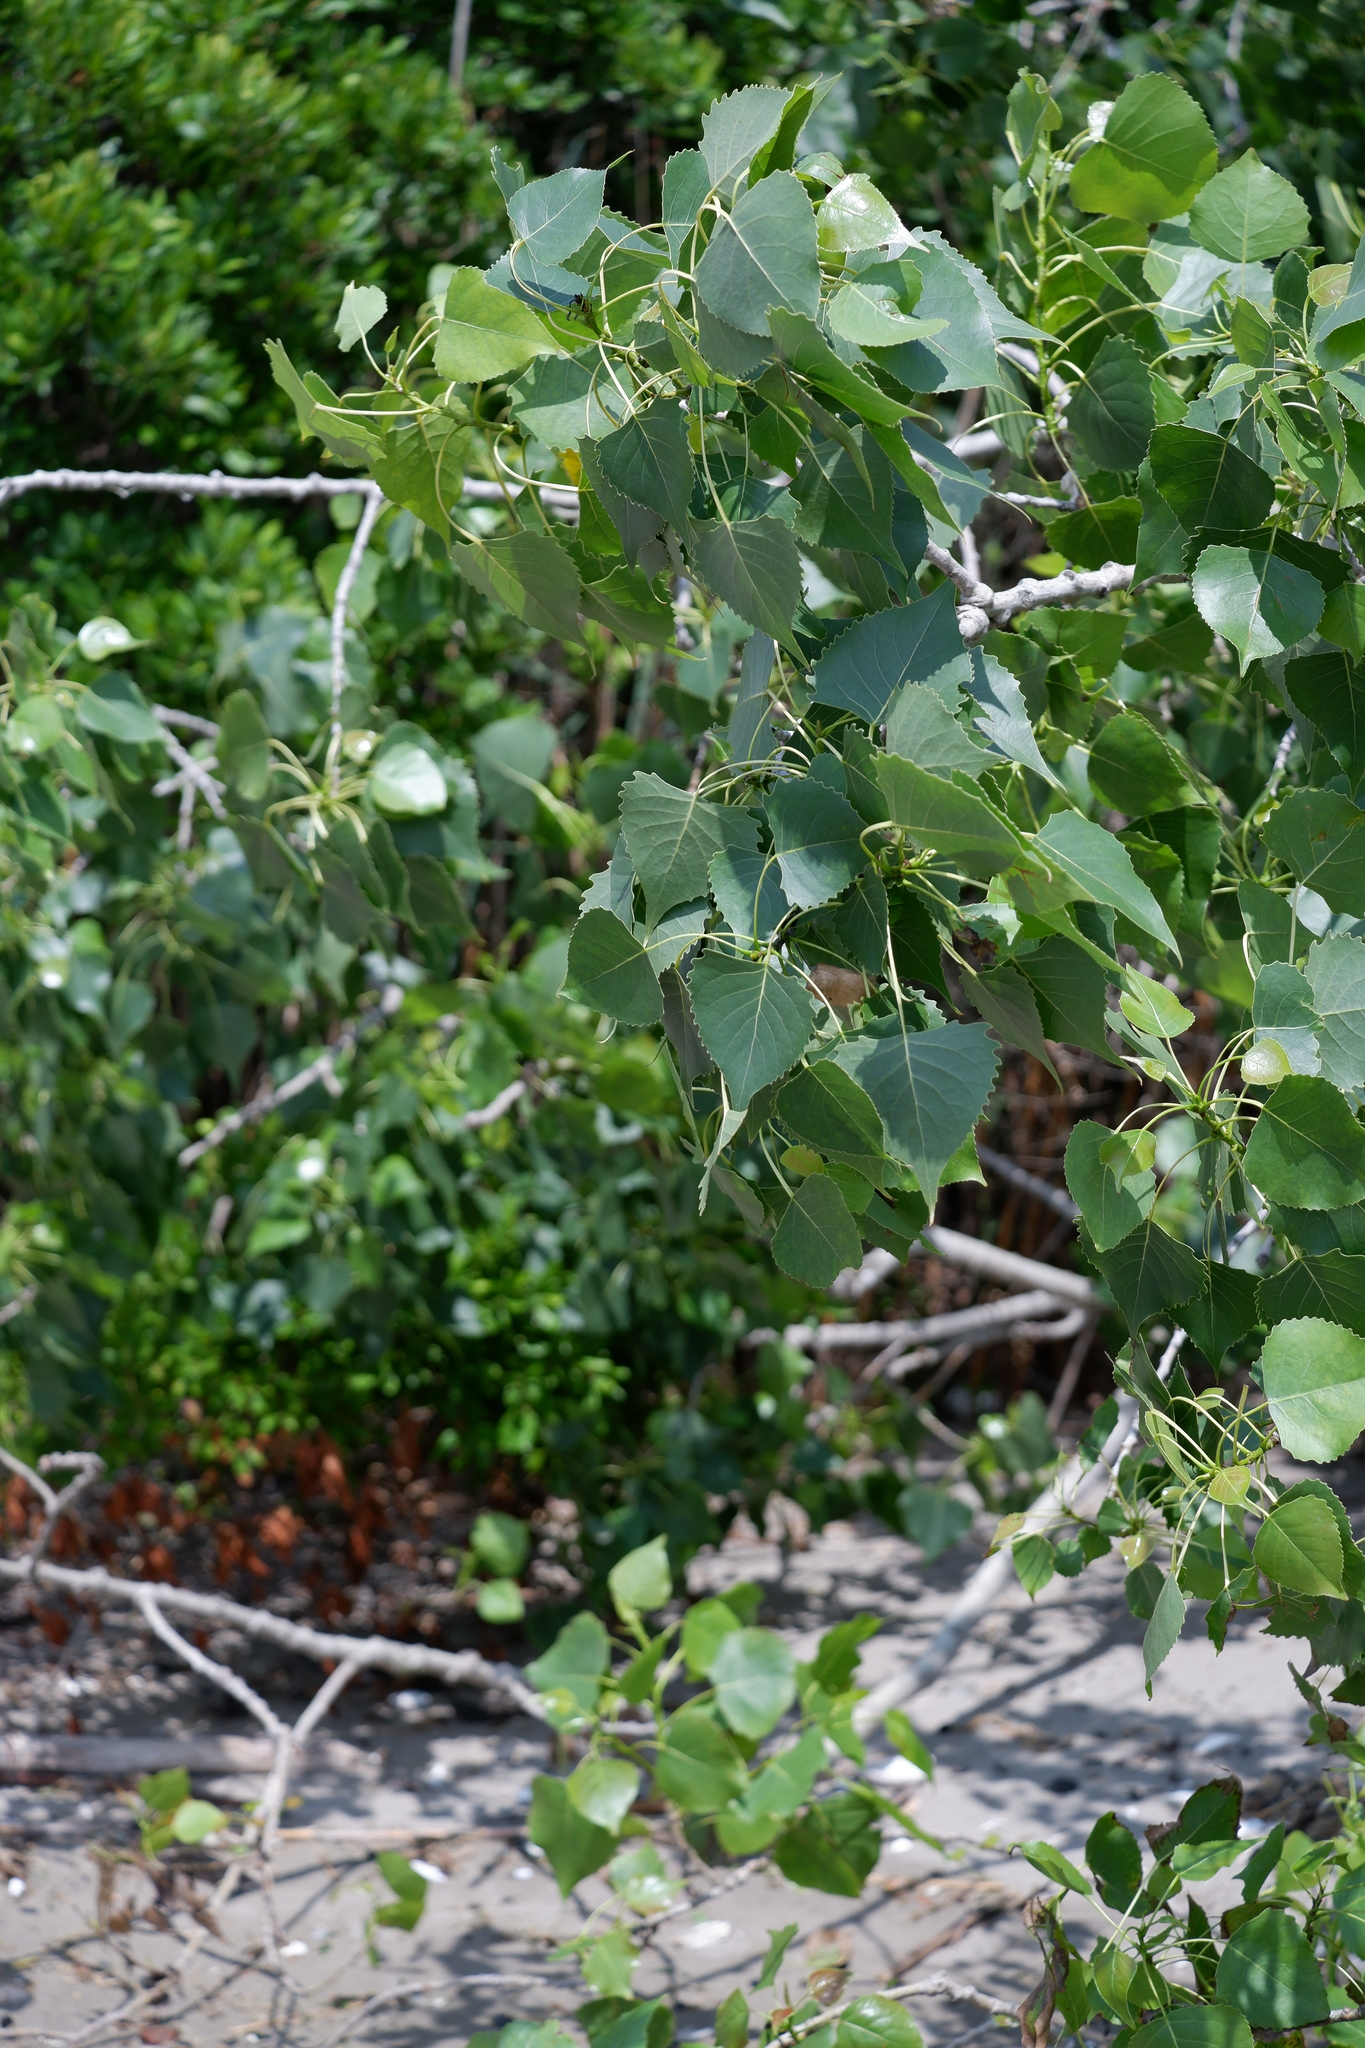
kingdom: Plantae
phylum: Tracheophyta
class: Magnoliopsida
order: Malpighiales
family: Salicaceae
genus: Populus
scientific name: Populus deltoides
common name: Eastern cottonwood
